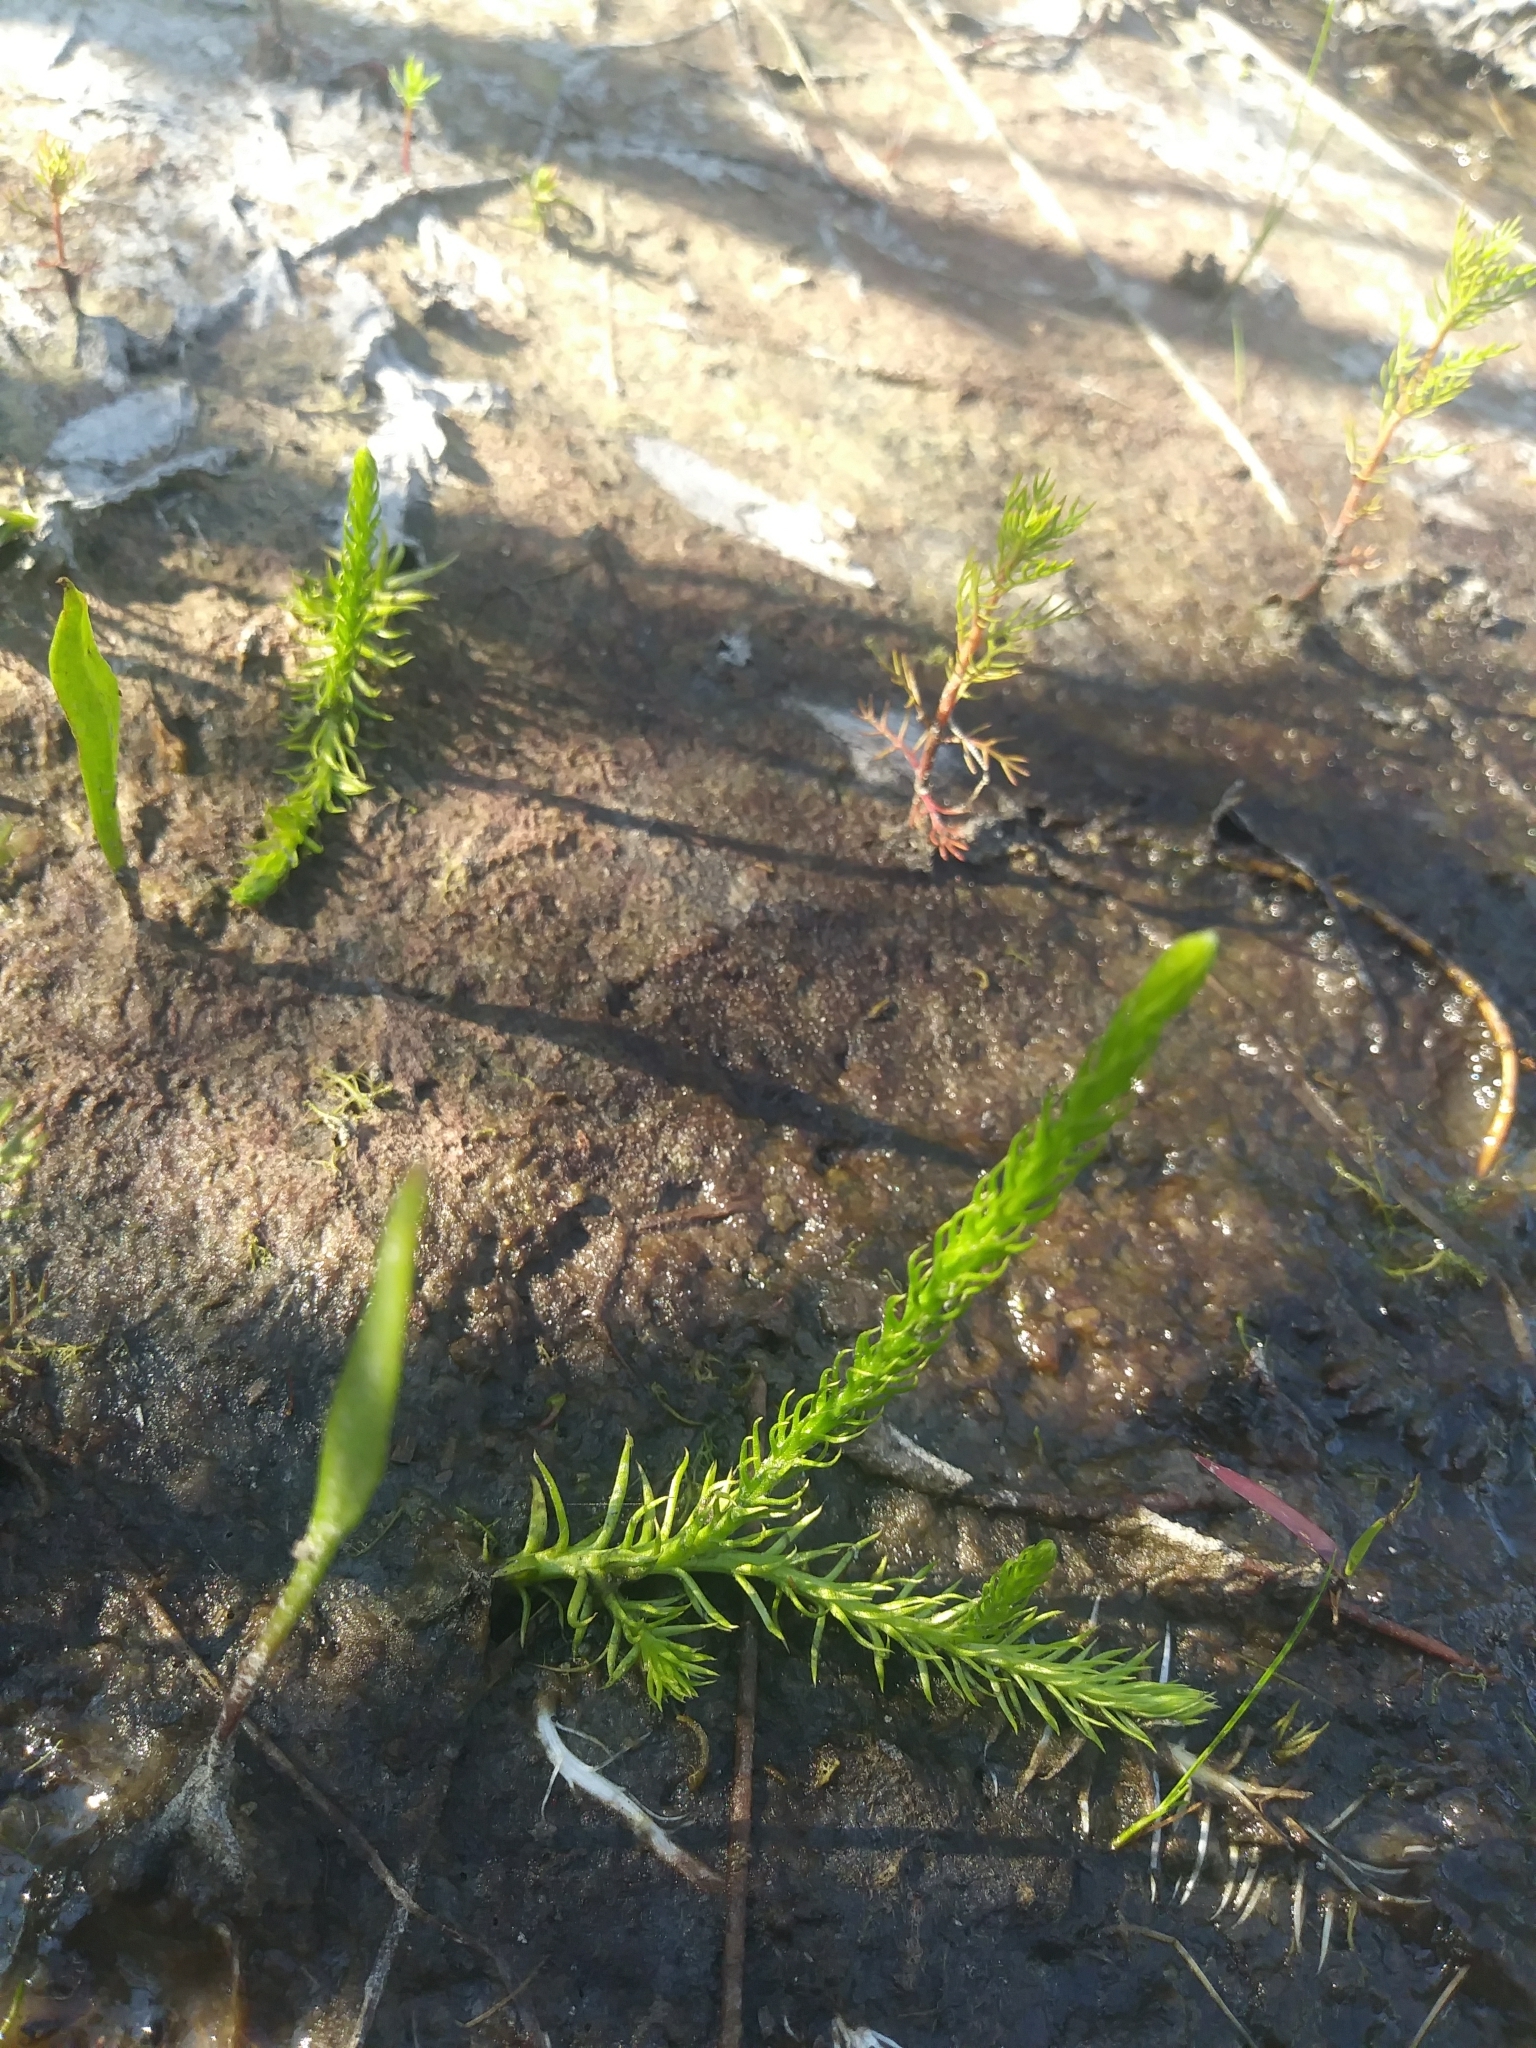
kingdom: Plantae
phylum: Tracheophyta
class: Lycopodiopsida
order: Lycopodiales
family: Lycopodiaceae
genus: Lycopodiella
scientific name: Lycopodiella appressa
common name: Appressed bog clubmoss
